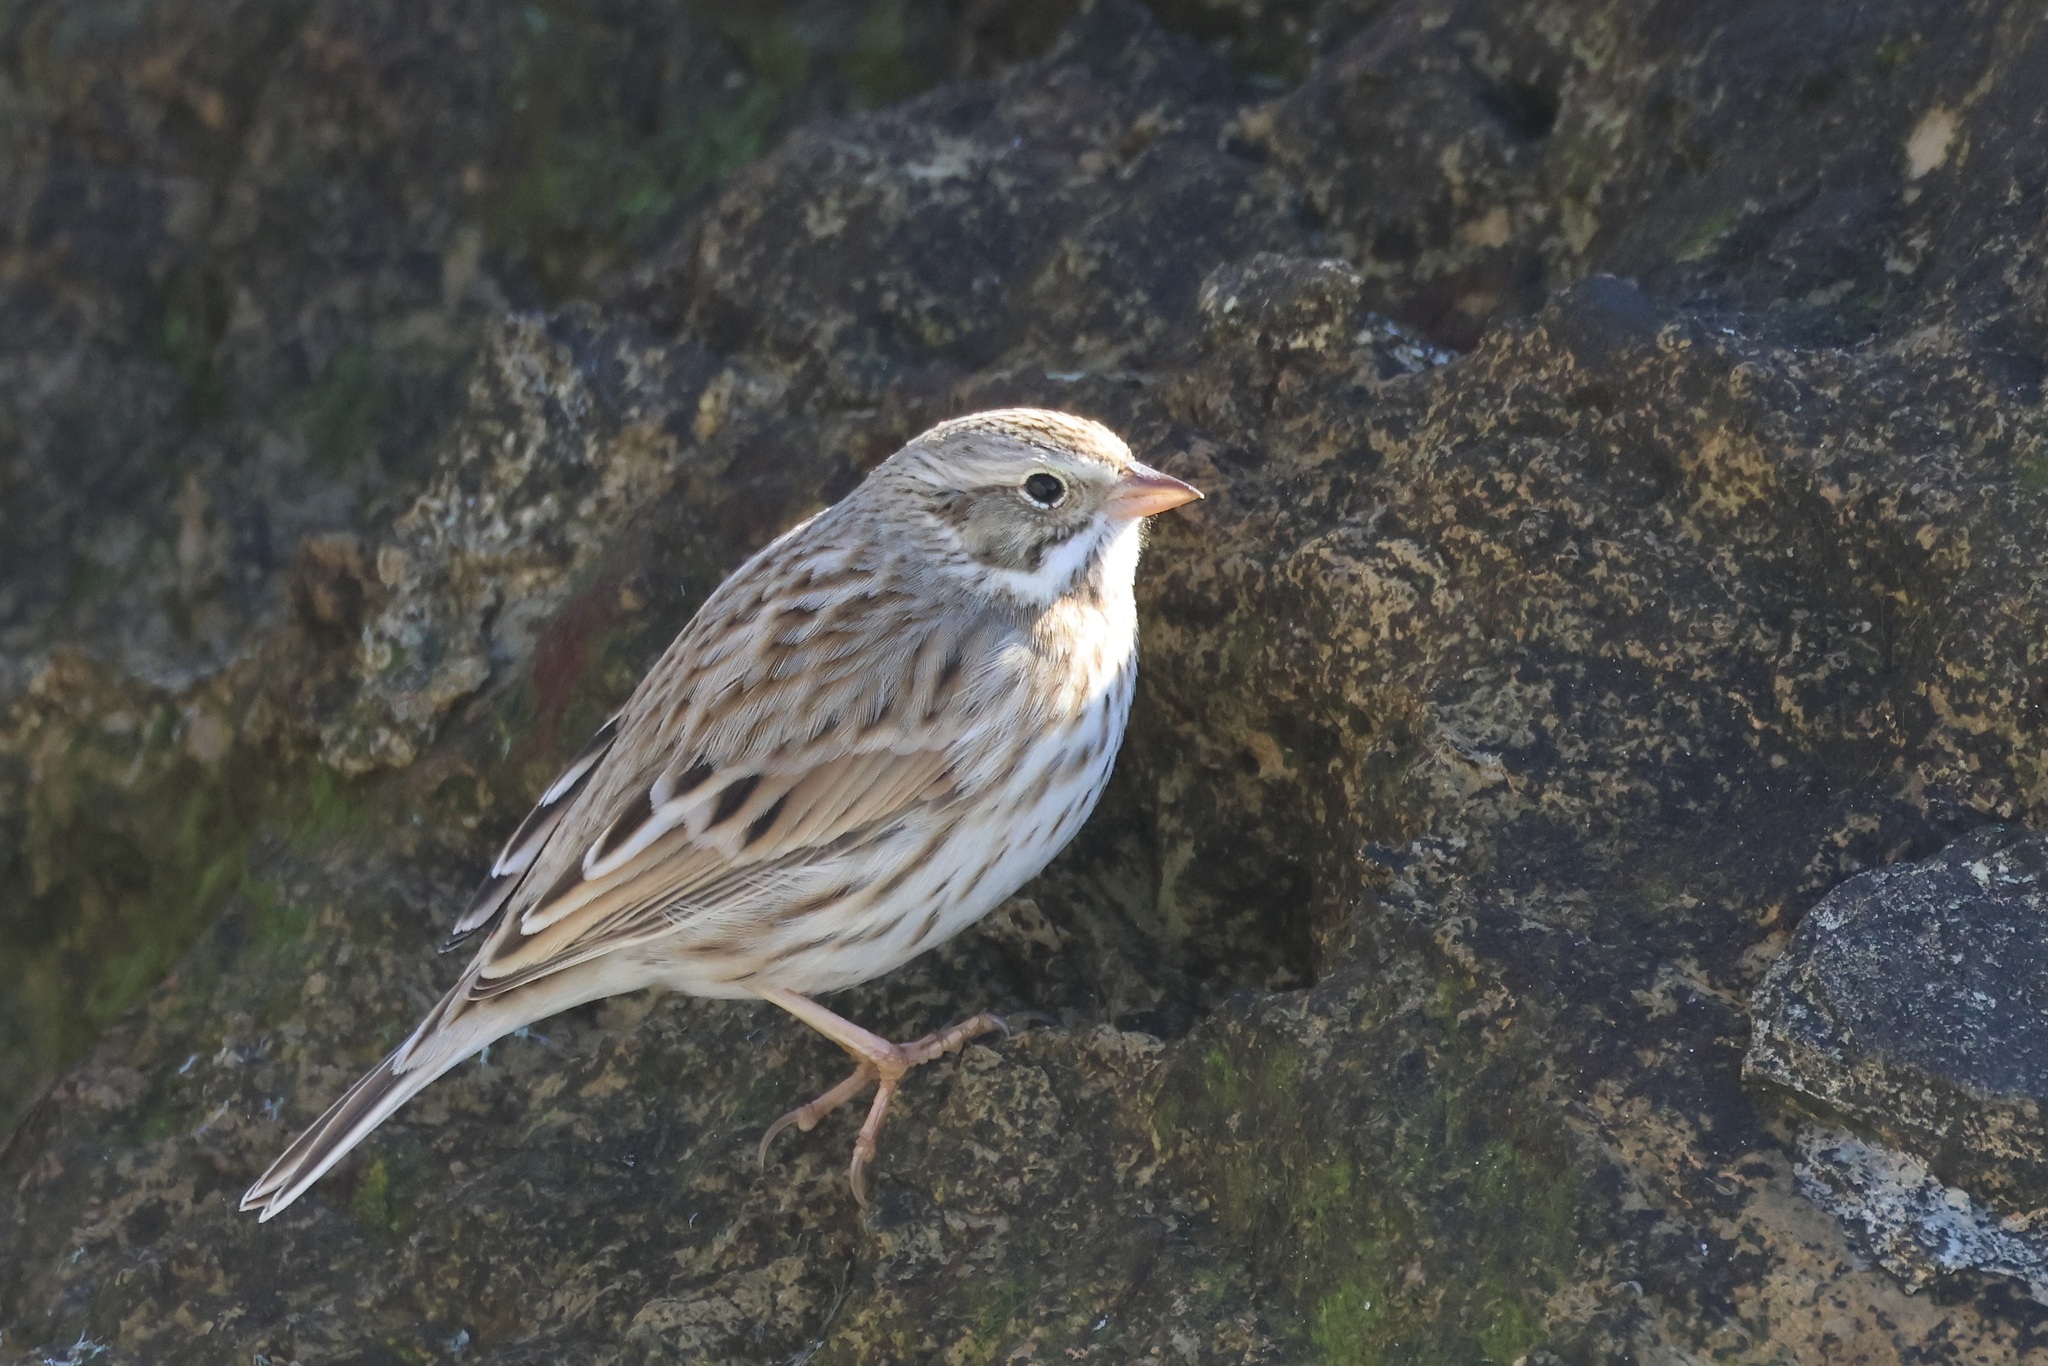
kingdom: Animalia
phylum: Chordata
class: Aves
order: Passeriformes
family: Passerellidae
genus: Passerculus
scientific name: Passerculus sandwichensis
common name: Savannah sparrow
